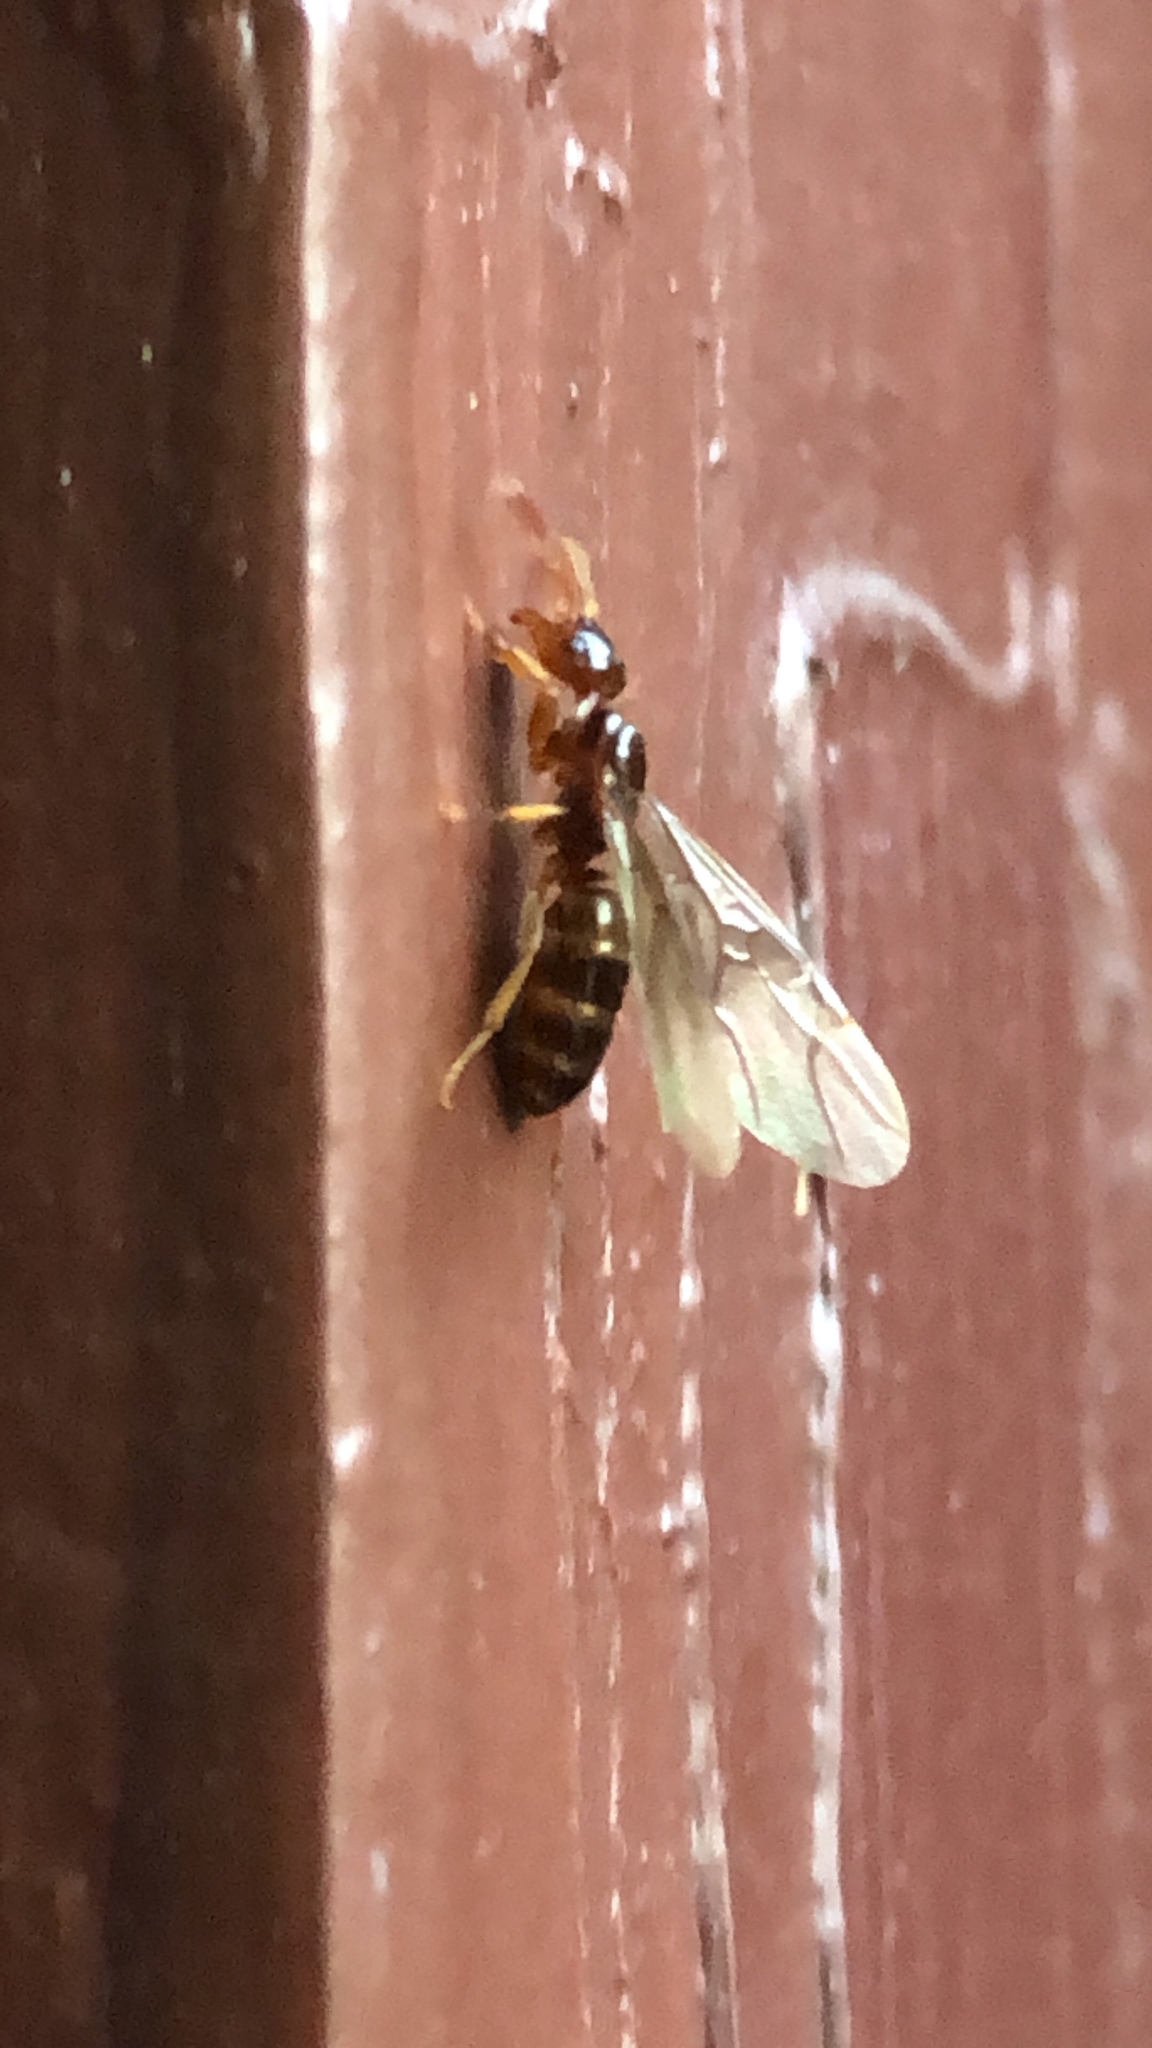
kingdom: Animalia
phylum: Arthropoda
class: Insecta
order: Hymenoptera
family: Formicidae
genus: Lasius
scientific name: Lasius claviger
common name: Common citronella ant
